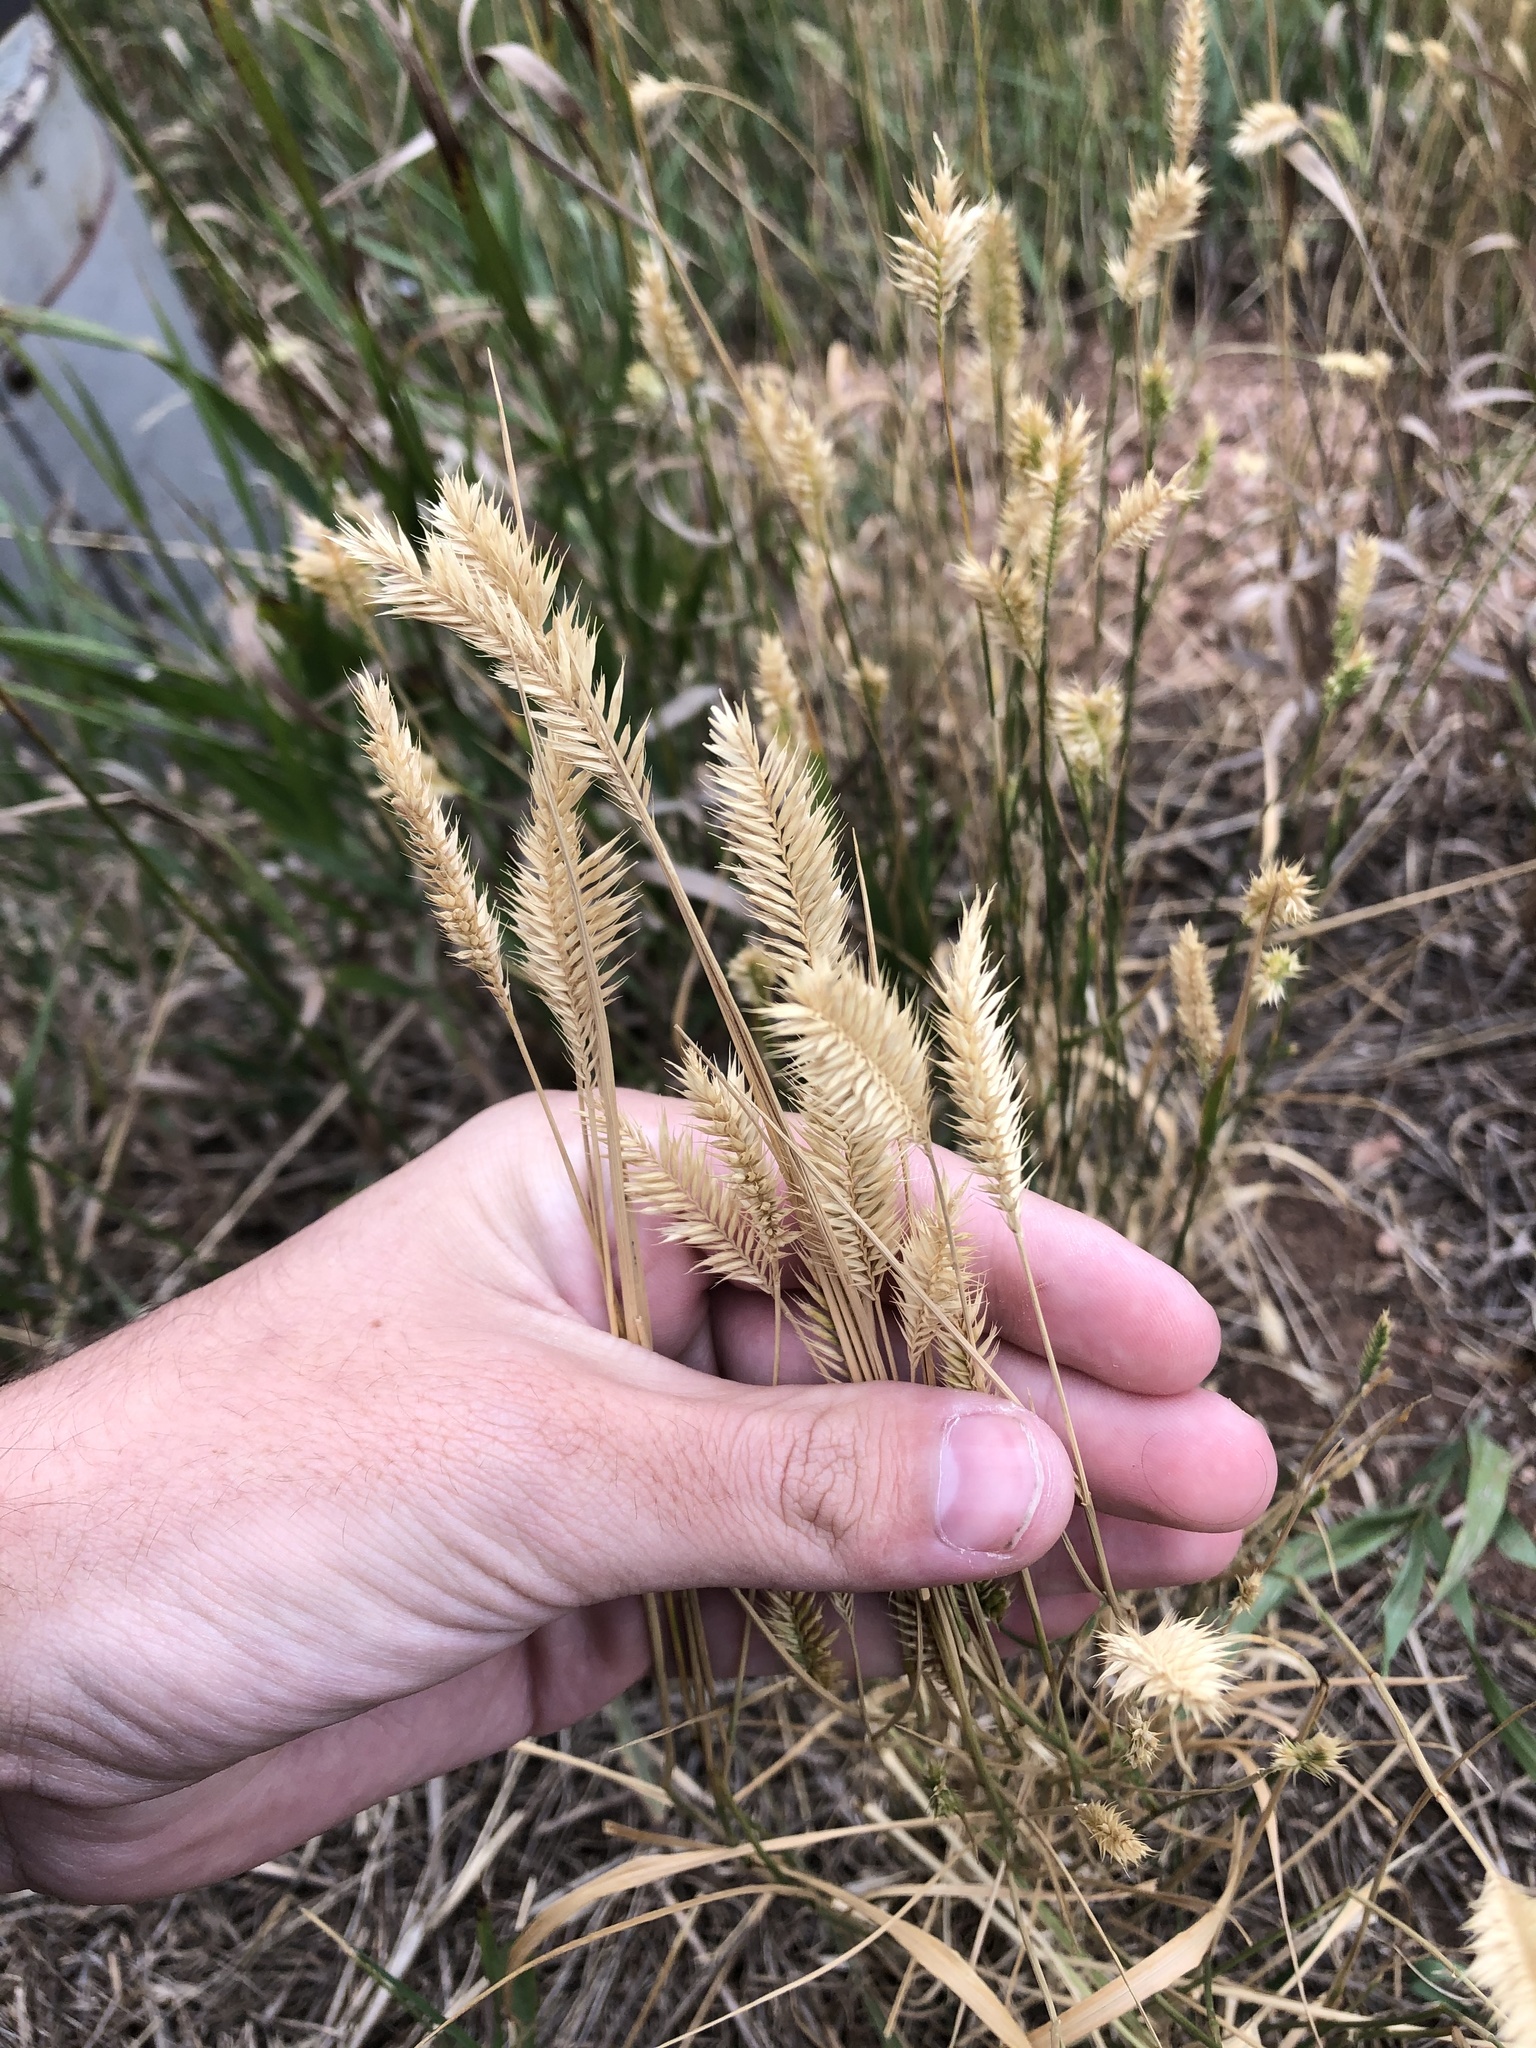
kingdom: Plantae
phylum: Tracheophyta
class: Liliopsida
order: Poales
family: Poaceae
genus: Agropyron
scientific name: Agropyron cristatum
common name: Crested wheatgrass
